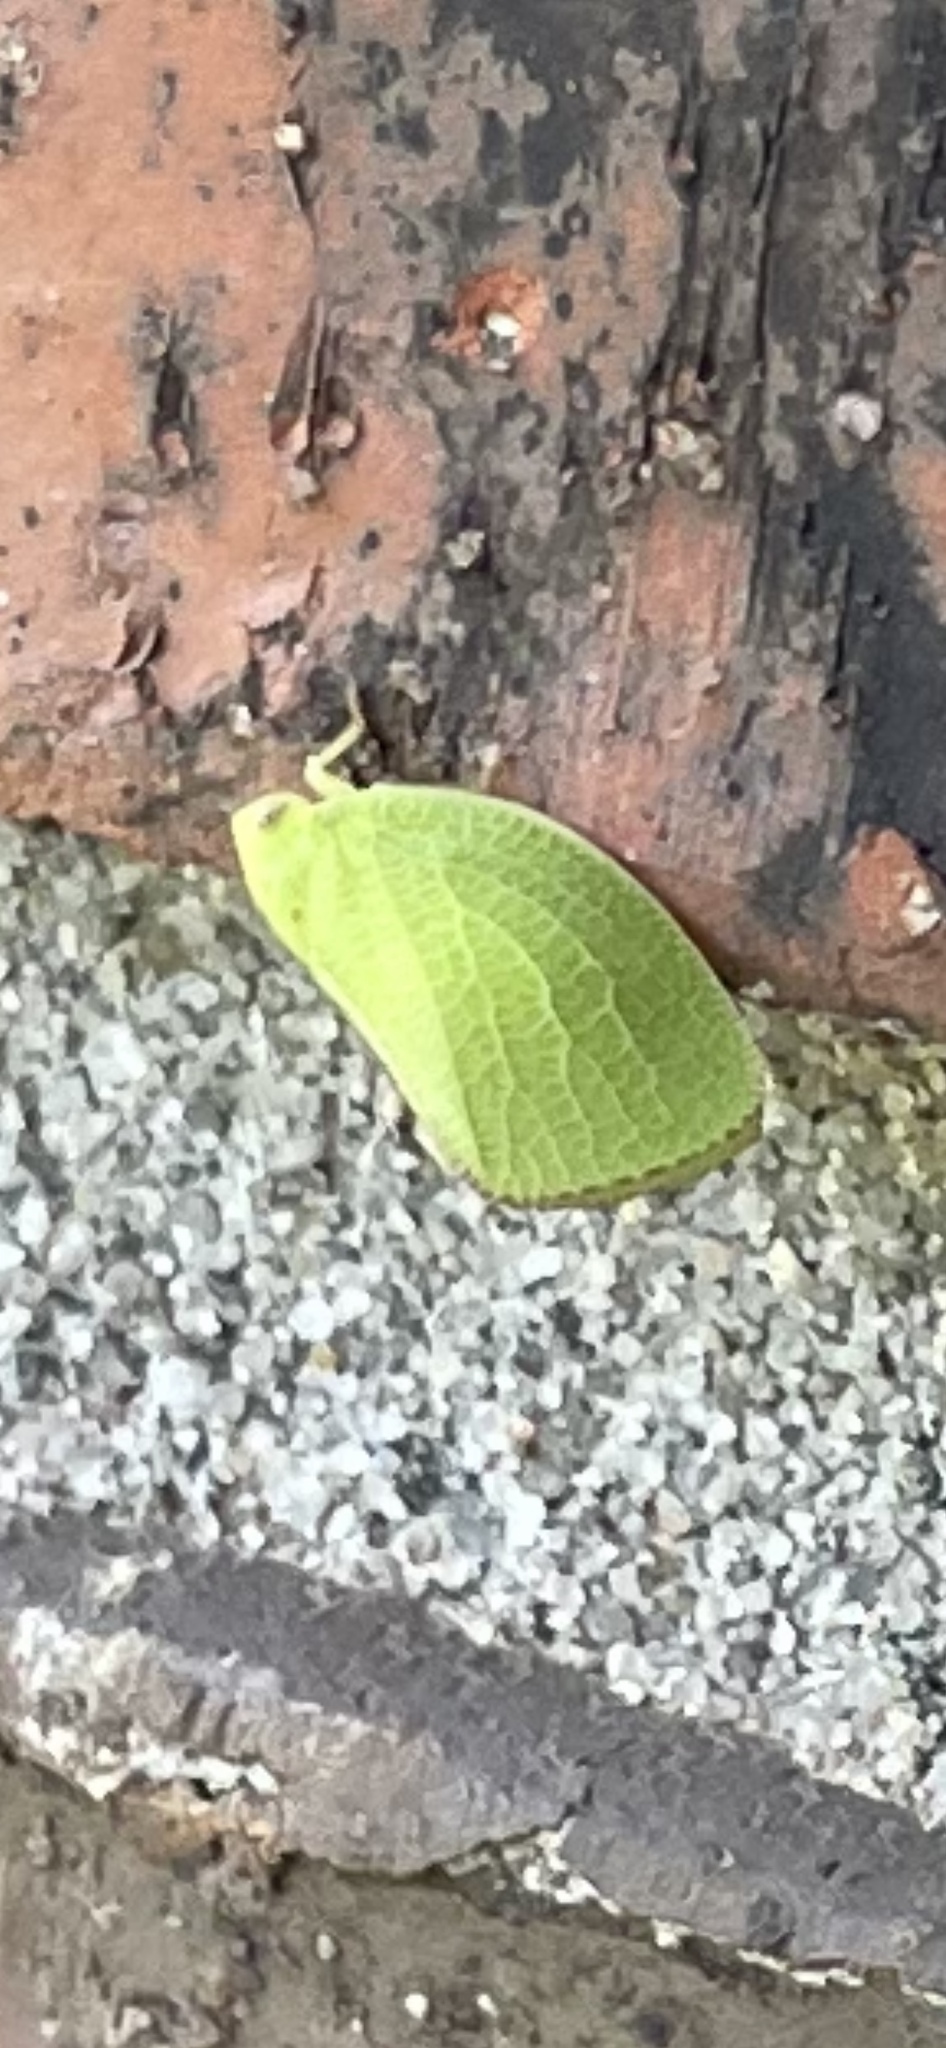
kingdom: Animalia
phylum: Arthropoda
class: Insecta
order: Hemiptera
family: Acanaloniidae
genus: Acanalonia
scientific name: Acanalonia conica
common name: Green cone-headed planthopper
